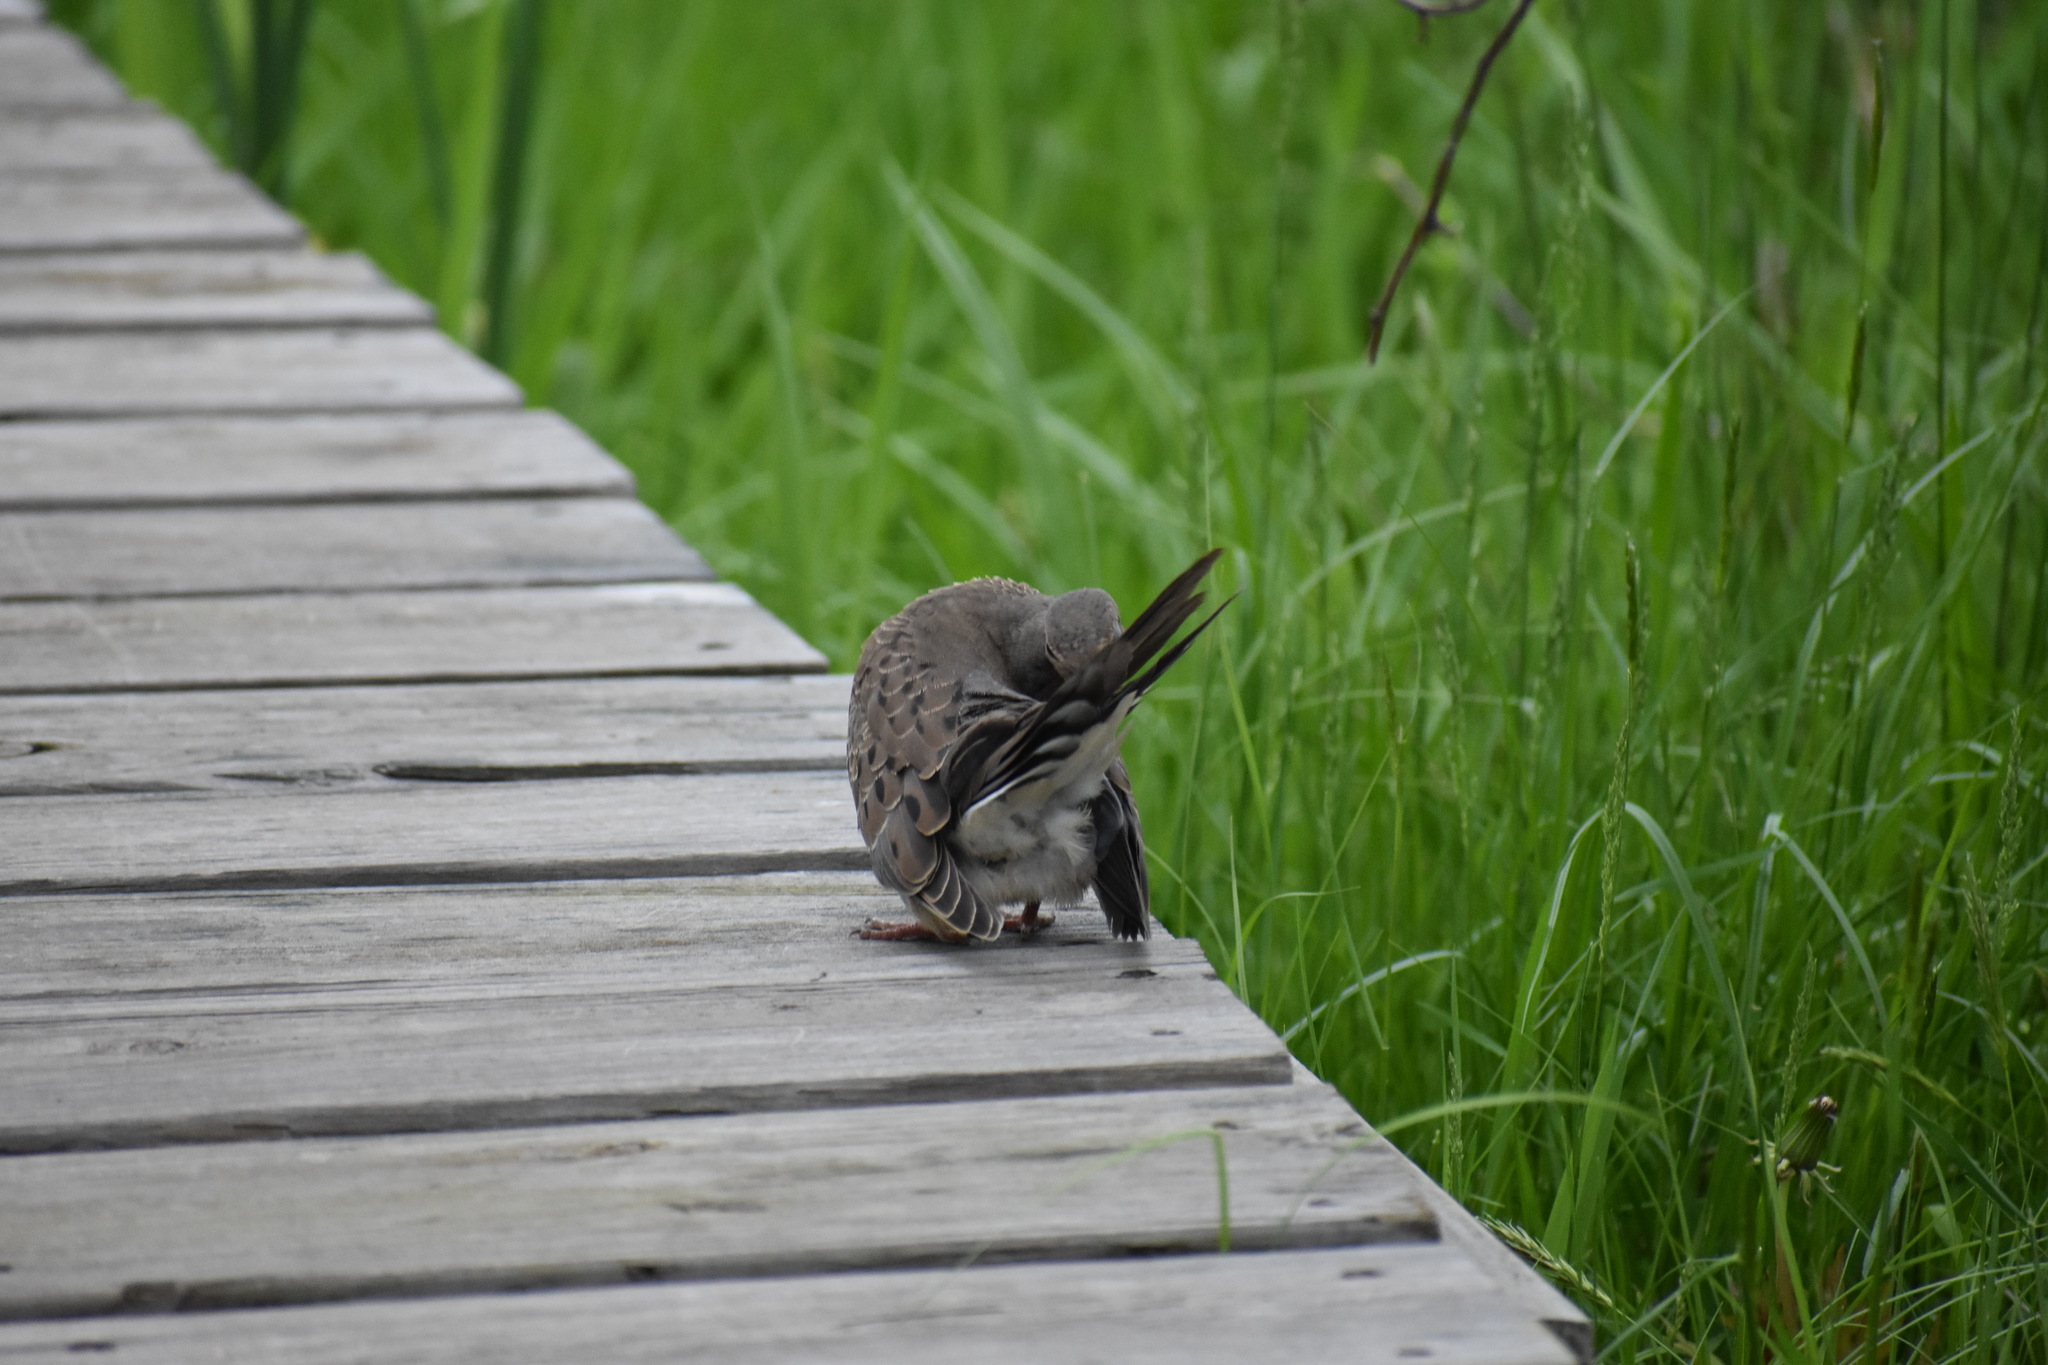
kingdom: Animalia
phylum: Chordata
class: Aves
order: Columbiformes
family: Columbidae
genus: Zenaida
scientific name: Zenaida macroura
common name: Mourning dove
